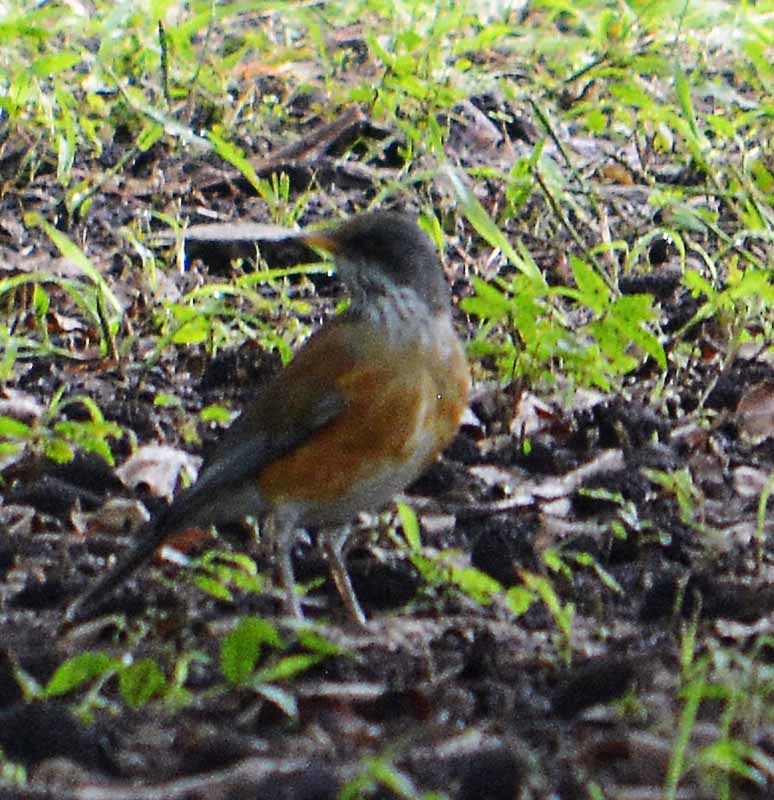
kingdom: Animalia
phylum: Chordata
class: Aves
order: Passeriformes
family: Turdidae
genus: Turdus
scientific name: Turdus rufopalliatus
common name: Rufous-backed robin
